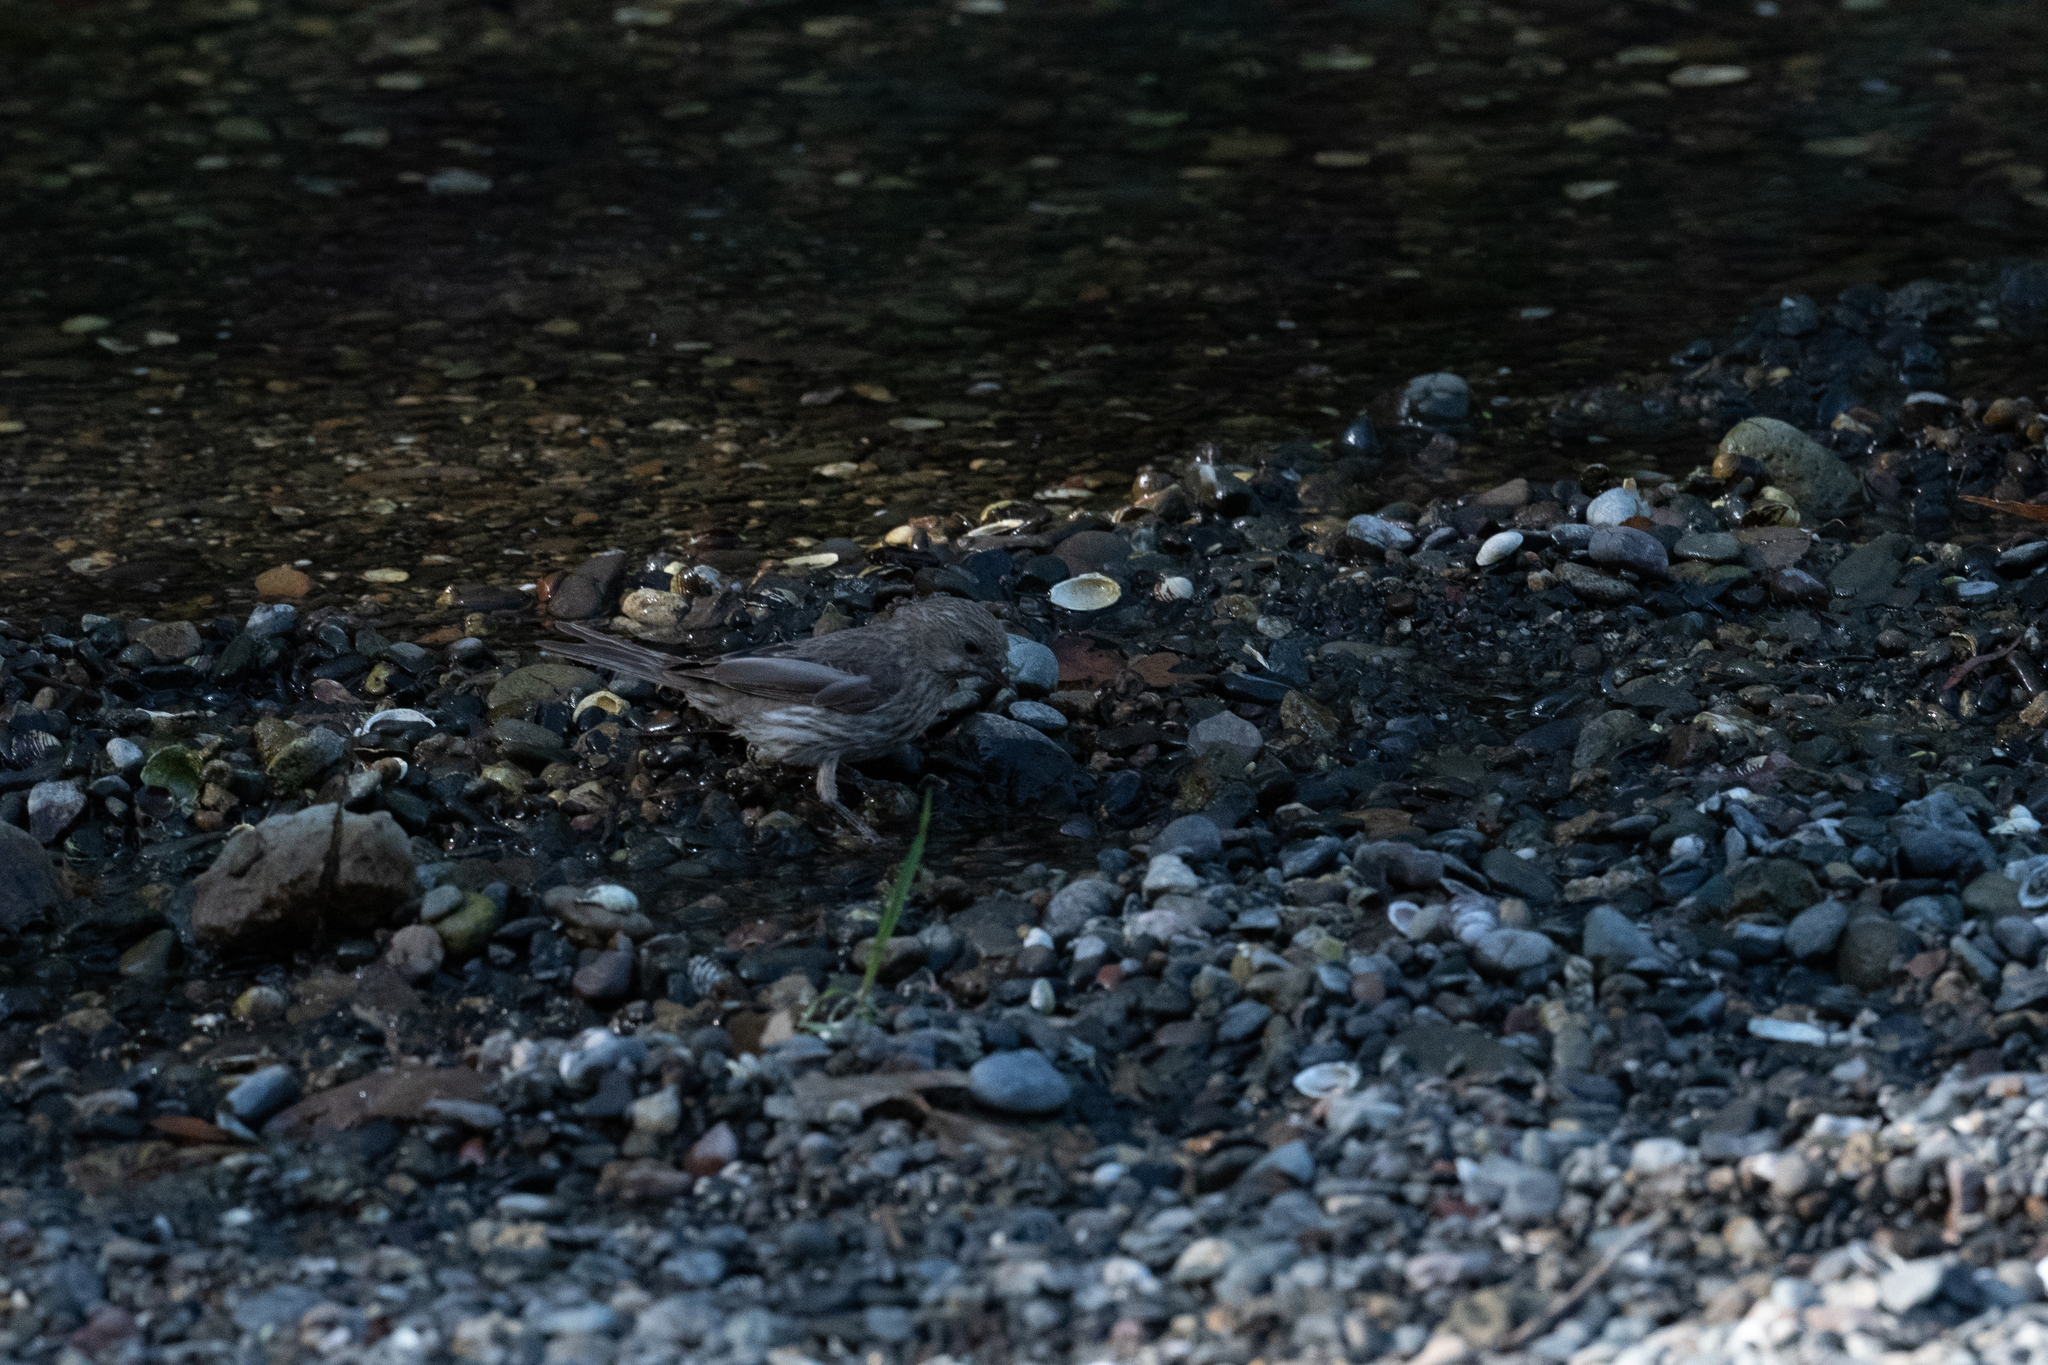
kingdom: Animalia
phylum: Chordata
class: Aves
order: Passeriformes
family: Fringillidae
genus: Haemorhous
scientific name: Haemorhous mexicanus
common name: House finch
